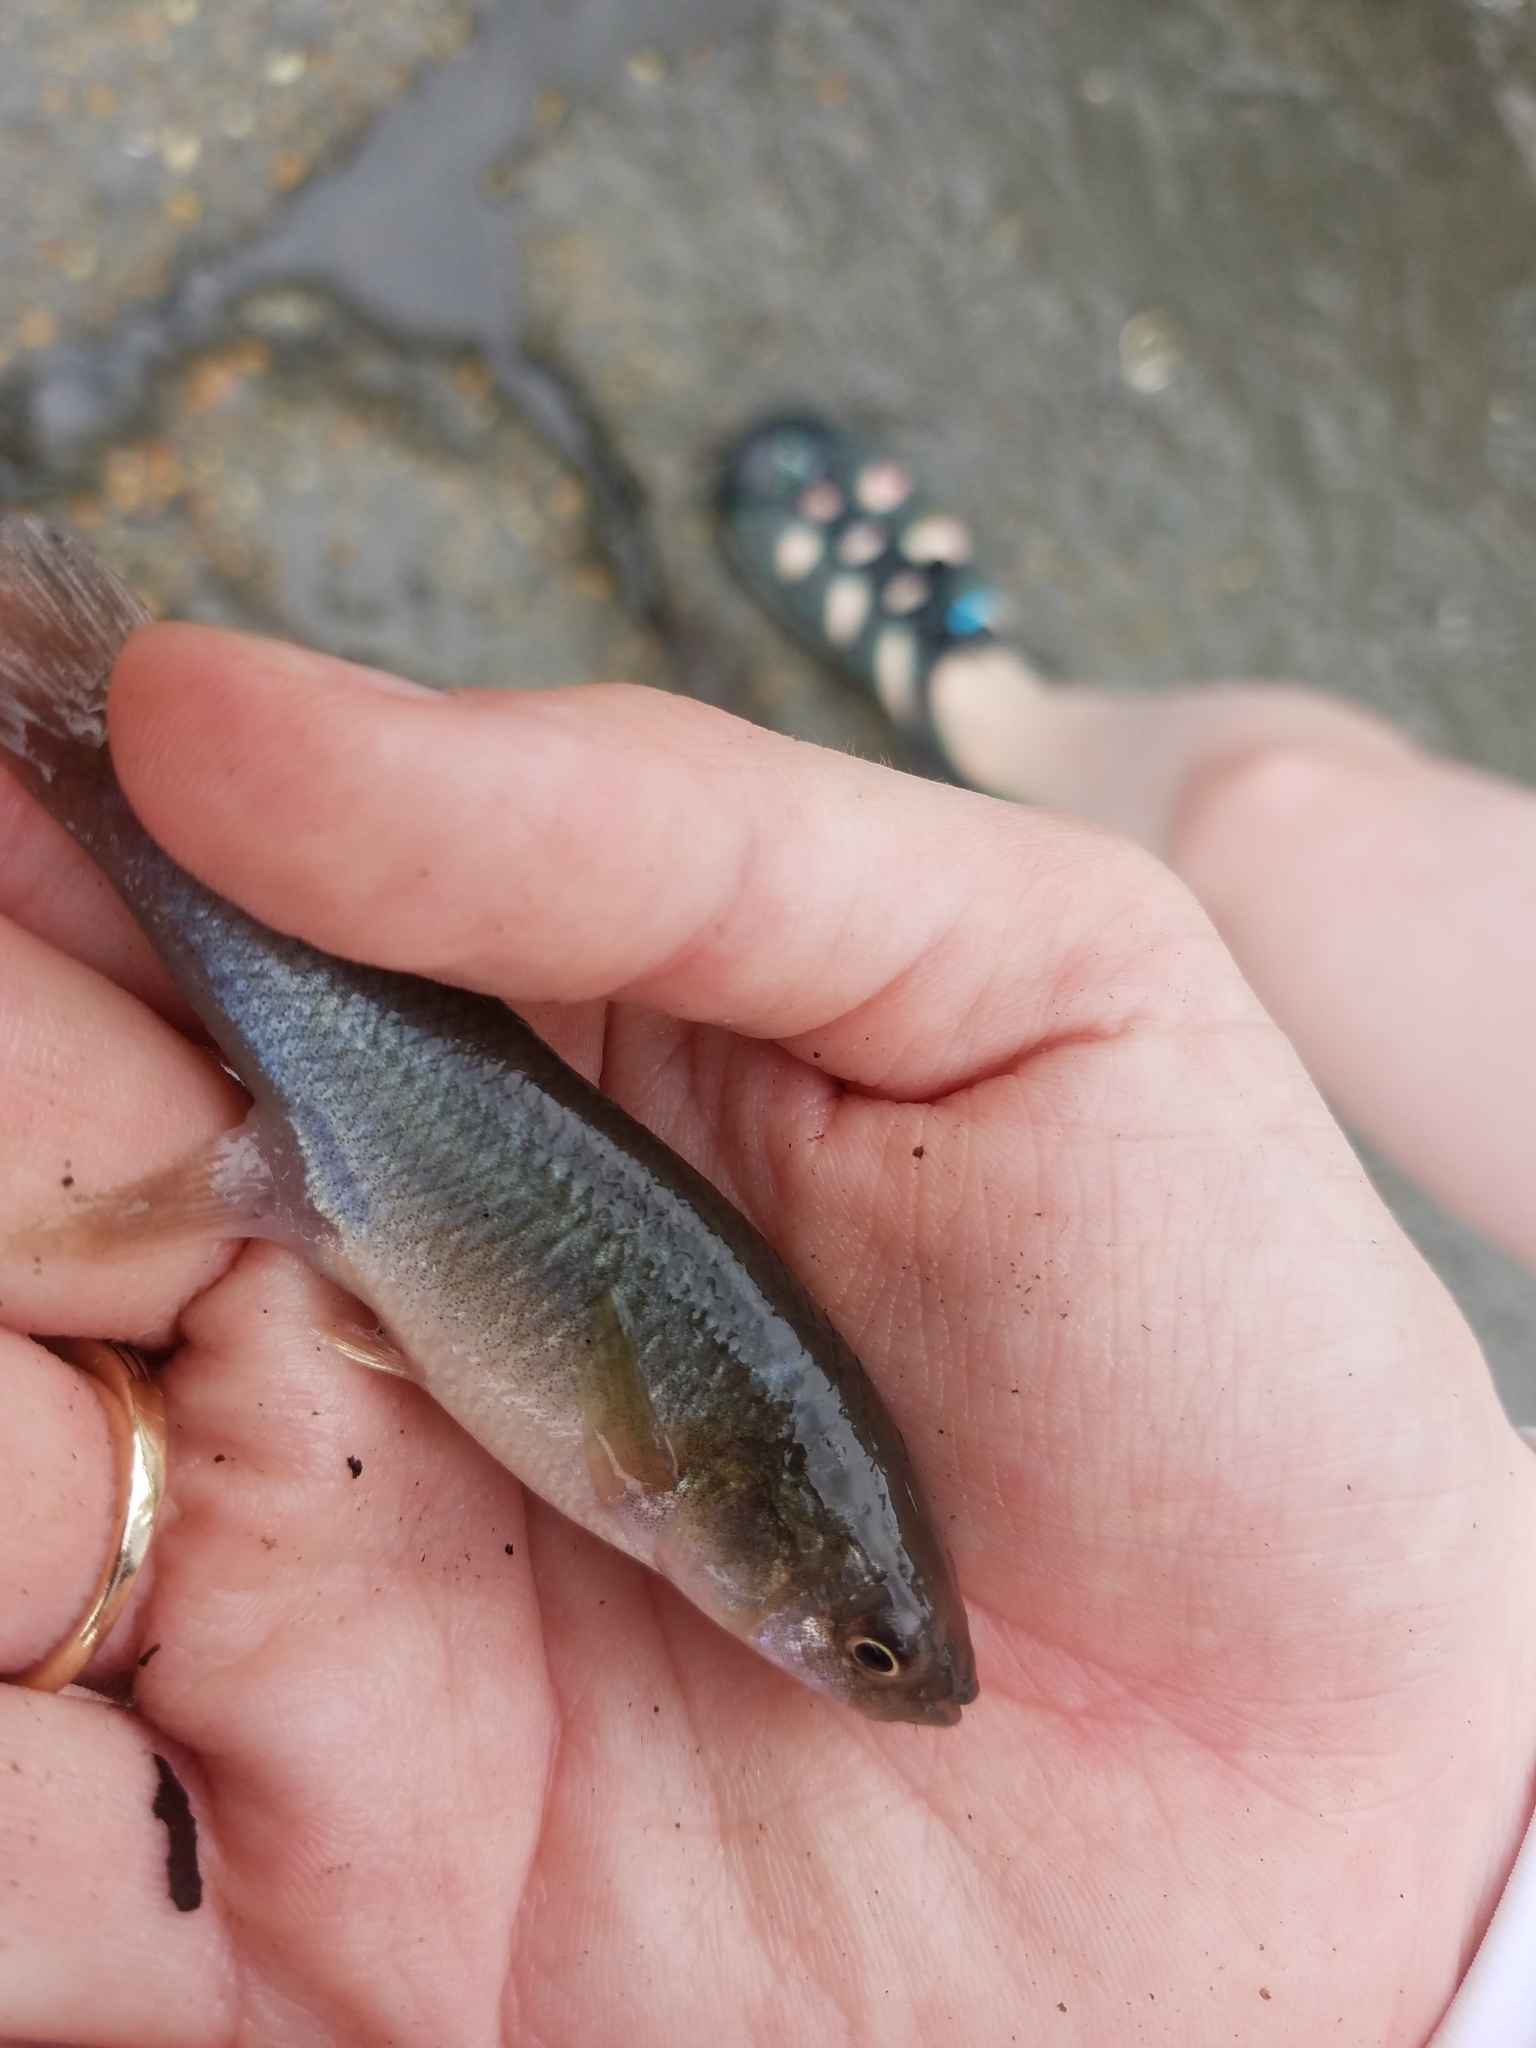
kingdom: Animalia
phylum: Chordata
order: Cyprinodontiformes
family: Fundulidae
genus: Fundulus
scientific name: Fundulus heteroclitus
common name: Mummichog
